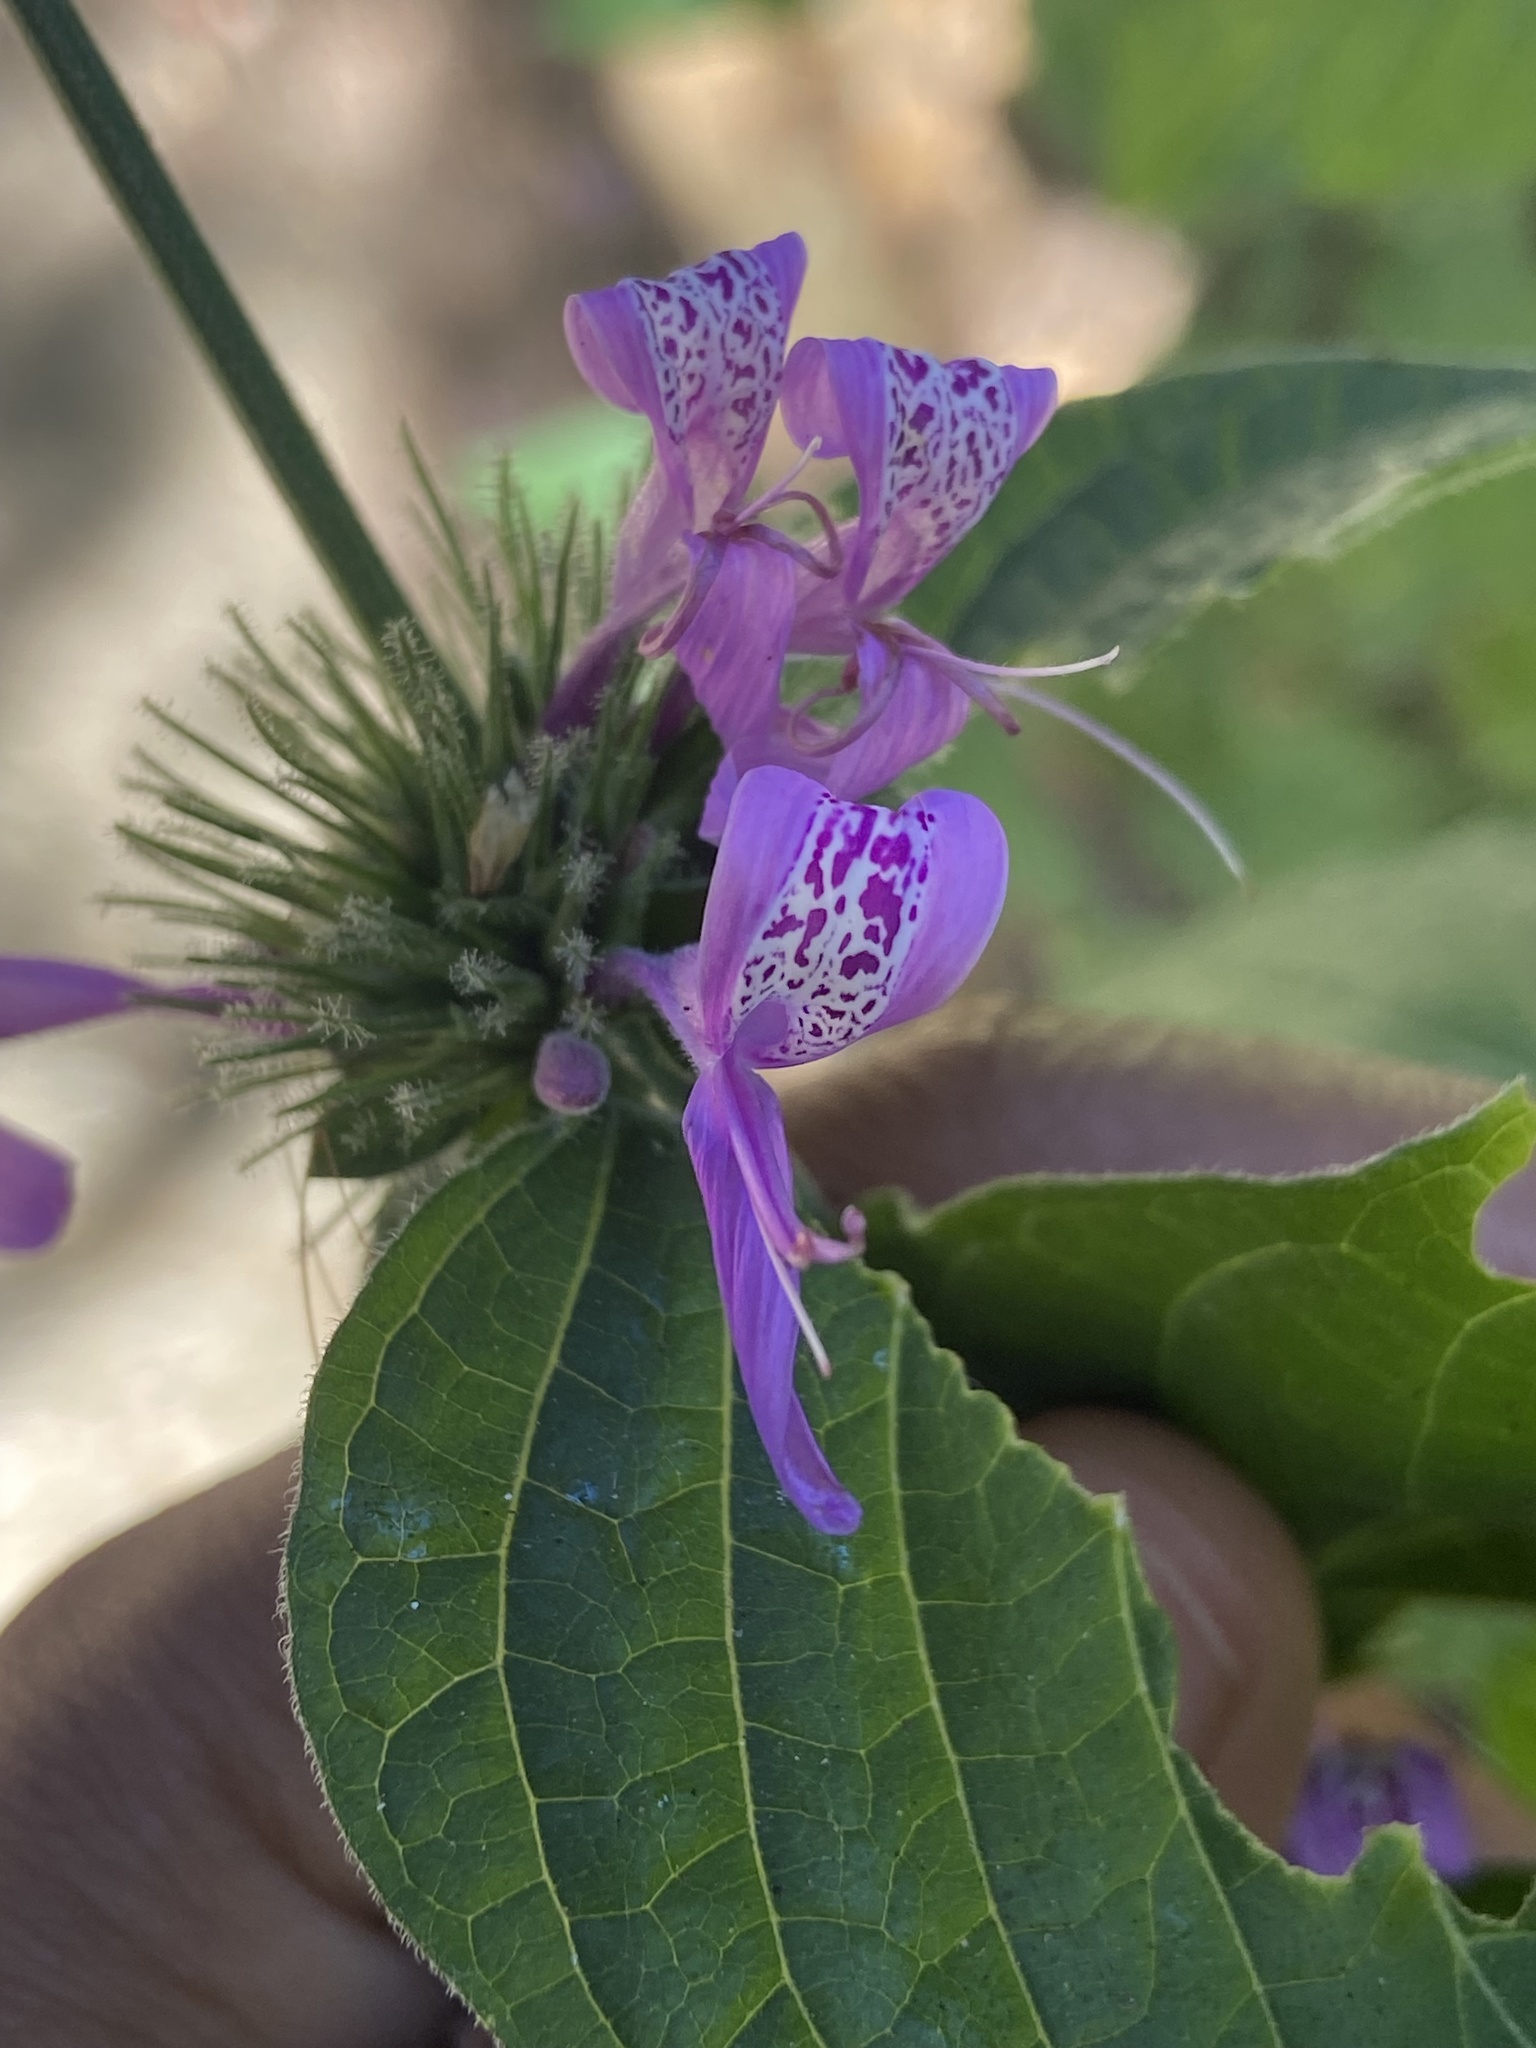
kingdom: Plantae
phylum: Tracheophyta
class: Magnoliopsida
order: Lamiales
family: Acanthaceae
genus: Hypoestes
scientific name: Hypoestes aristata
